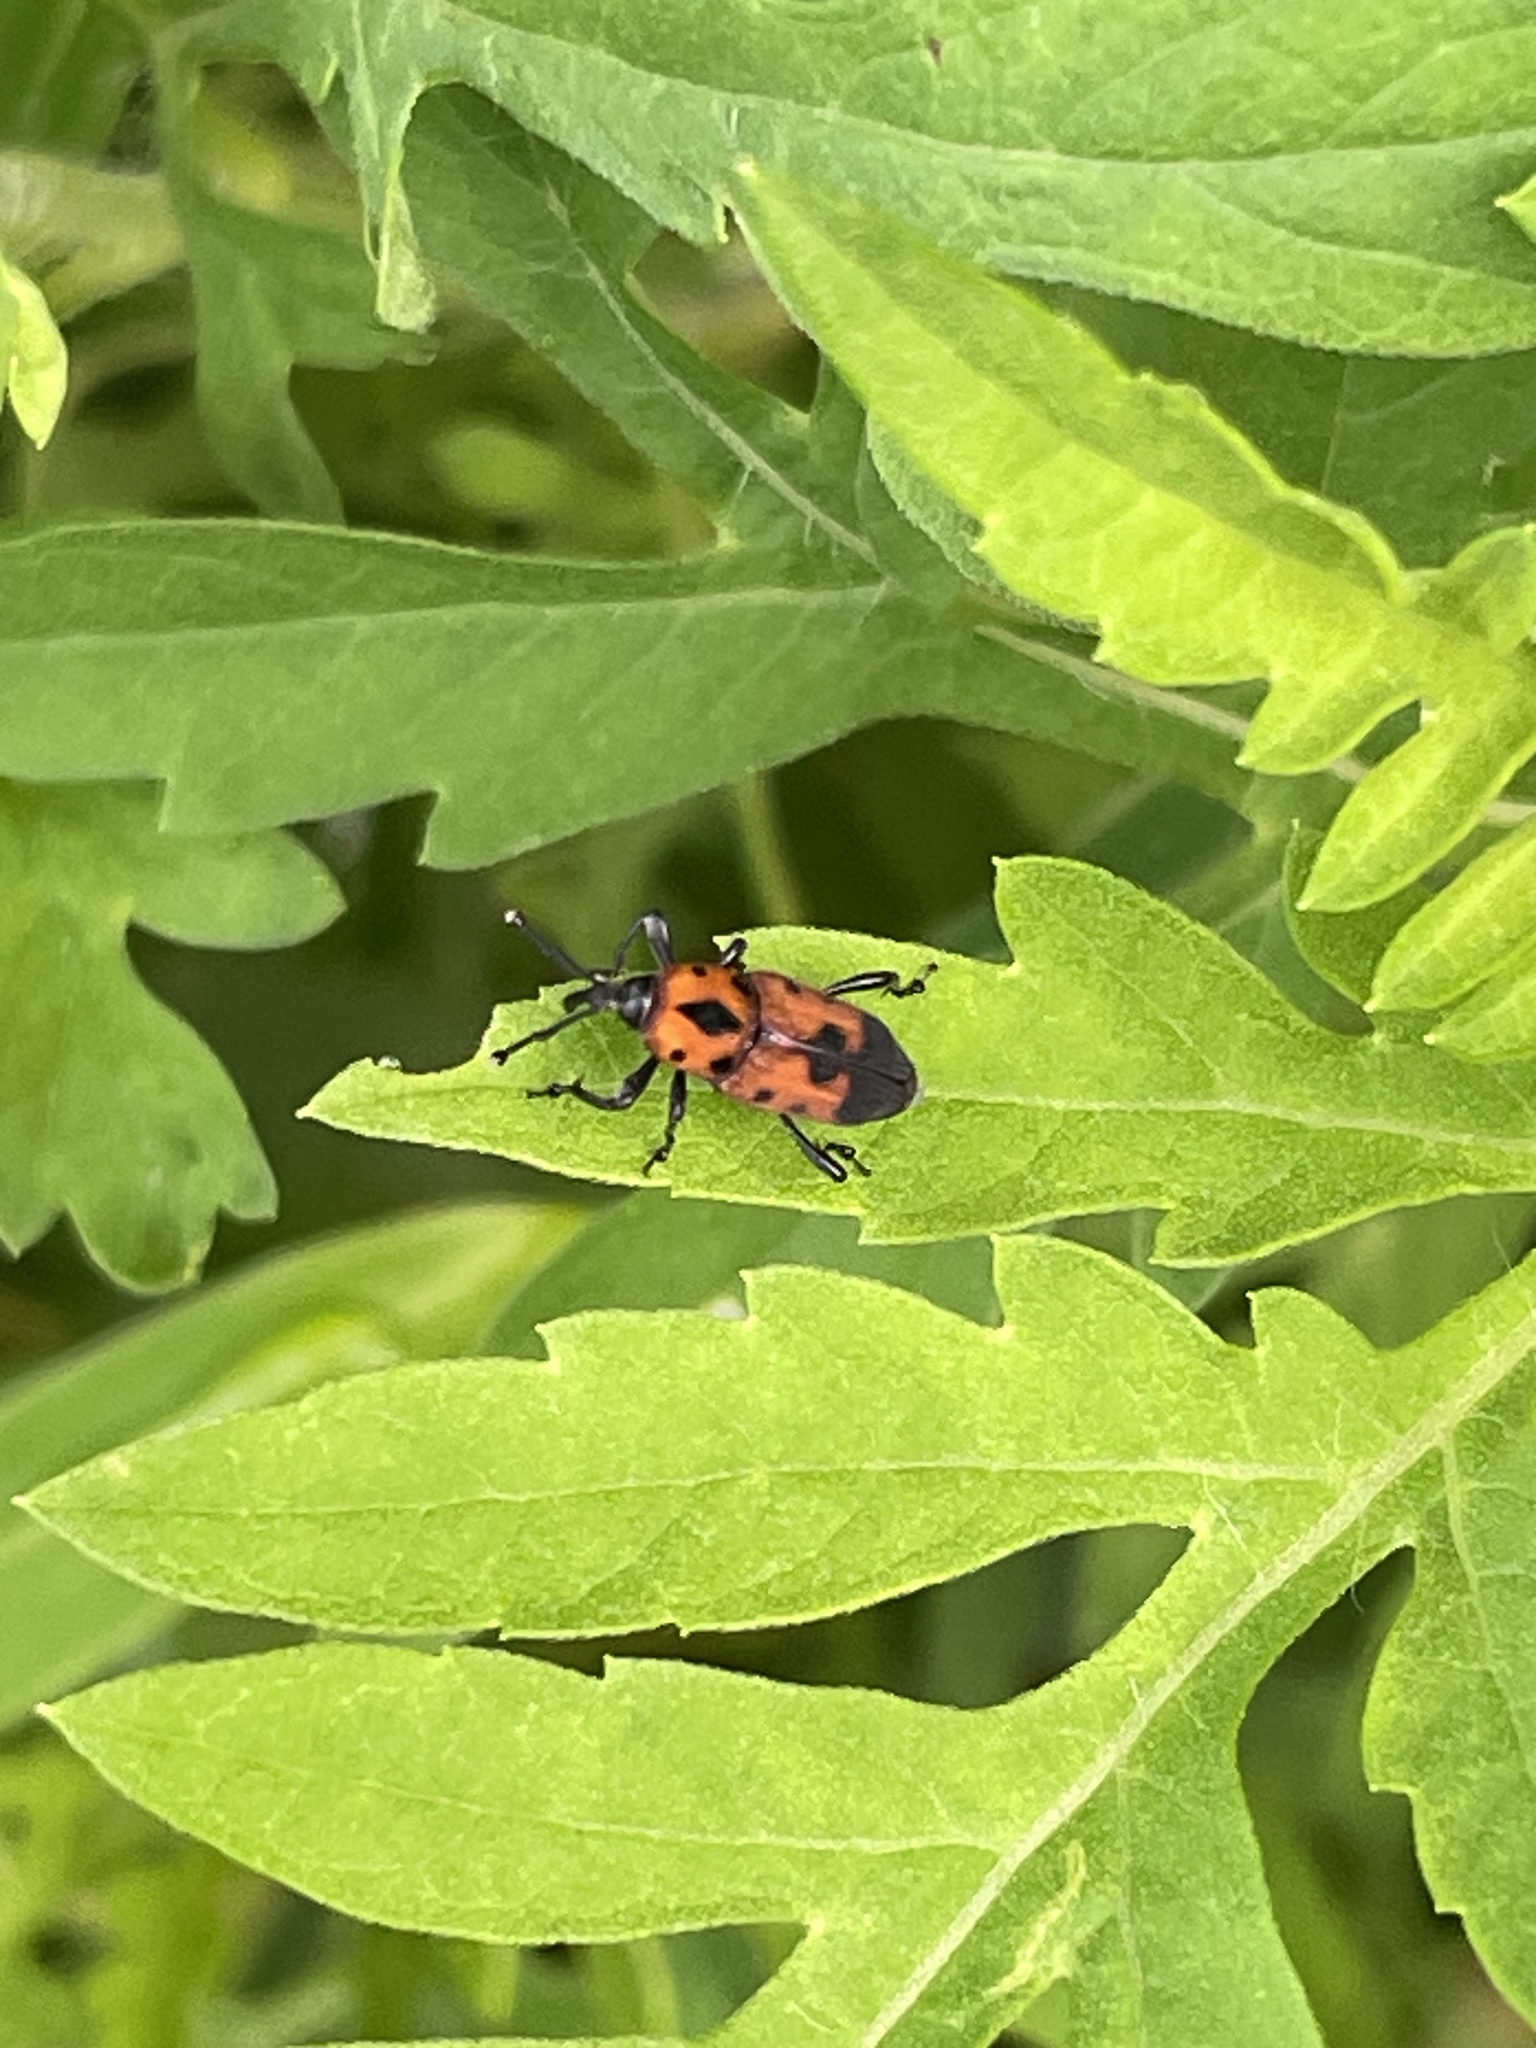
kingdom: Animalia
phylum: Arthropoda
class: Insecta
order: Coleoptera
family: Dryophthoridae
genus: Rhodobaenus
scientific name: Rhodobaenus quinquepunctatus
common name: Cocklebur weevil
